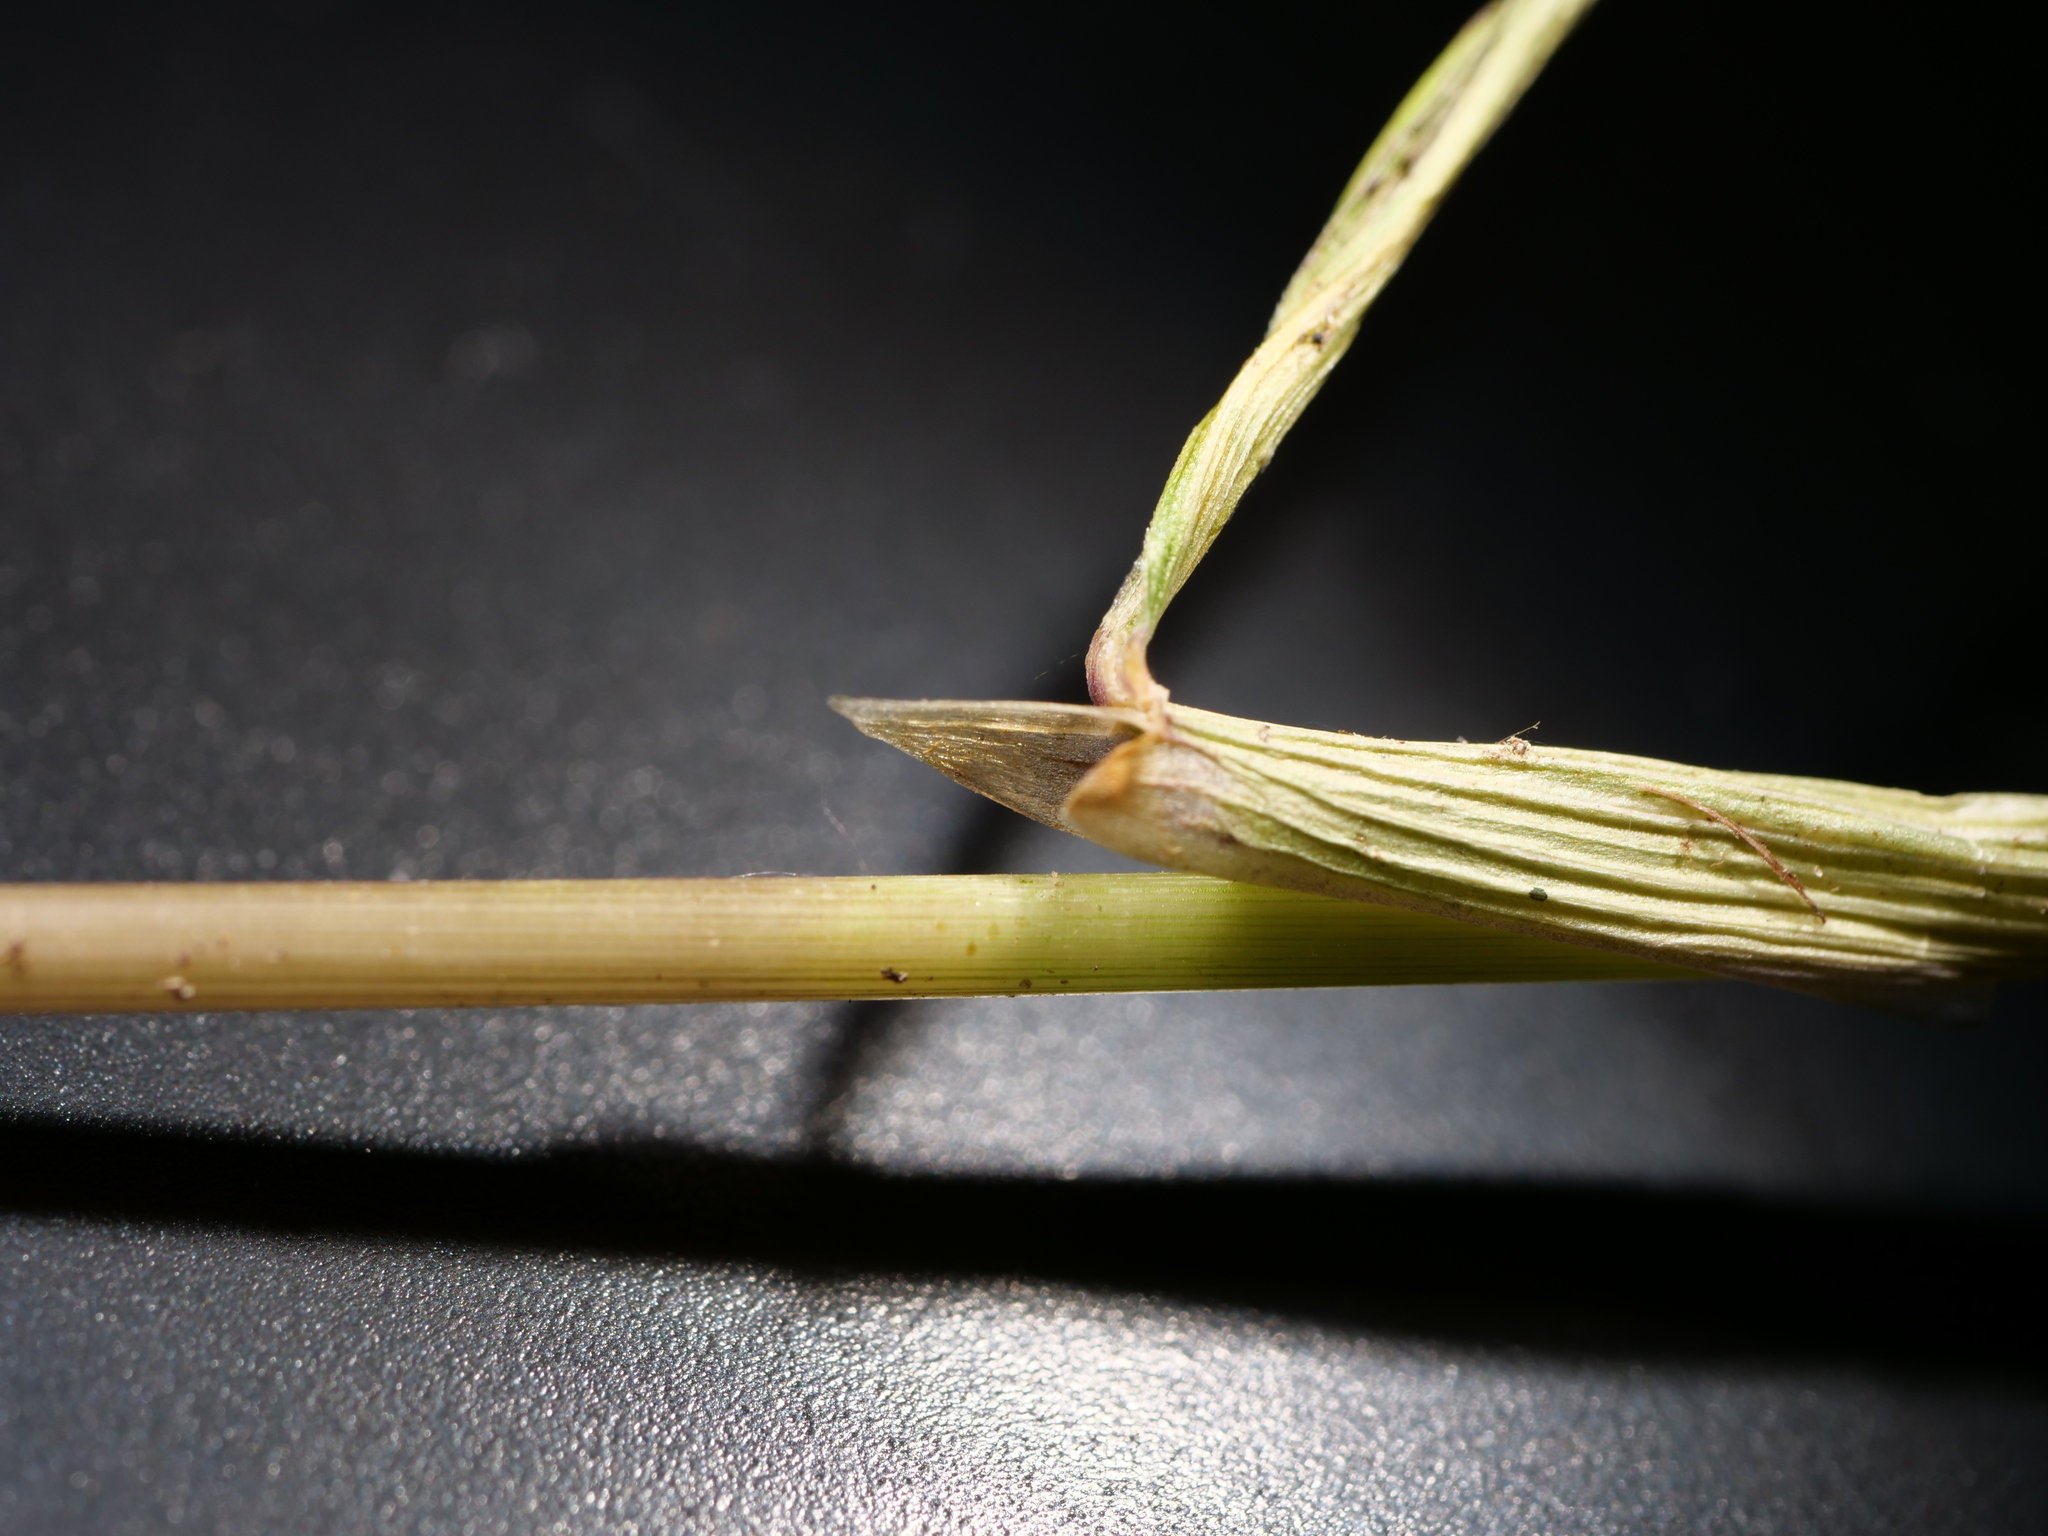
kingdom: Plantae
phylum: Tracheophyta
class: Liliopsida
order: Poales
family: Poaceae
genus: Deschampsia
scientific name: Deschampsia cespitosa
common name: Tufted hair-grass
